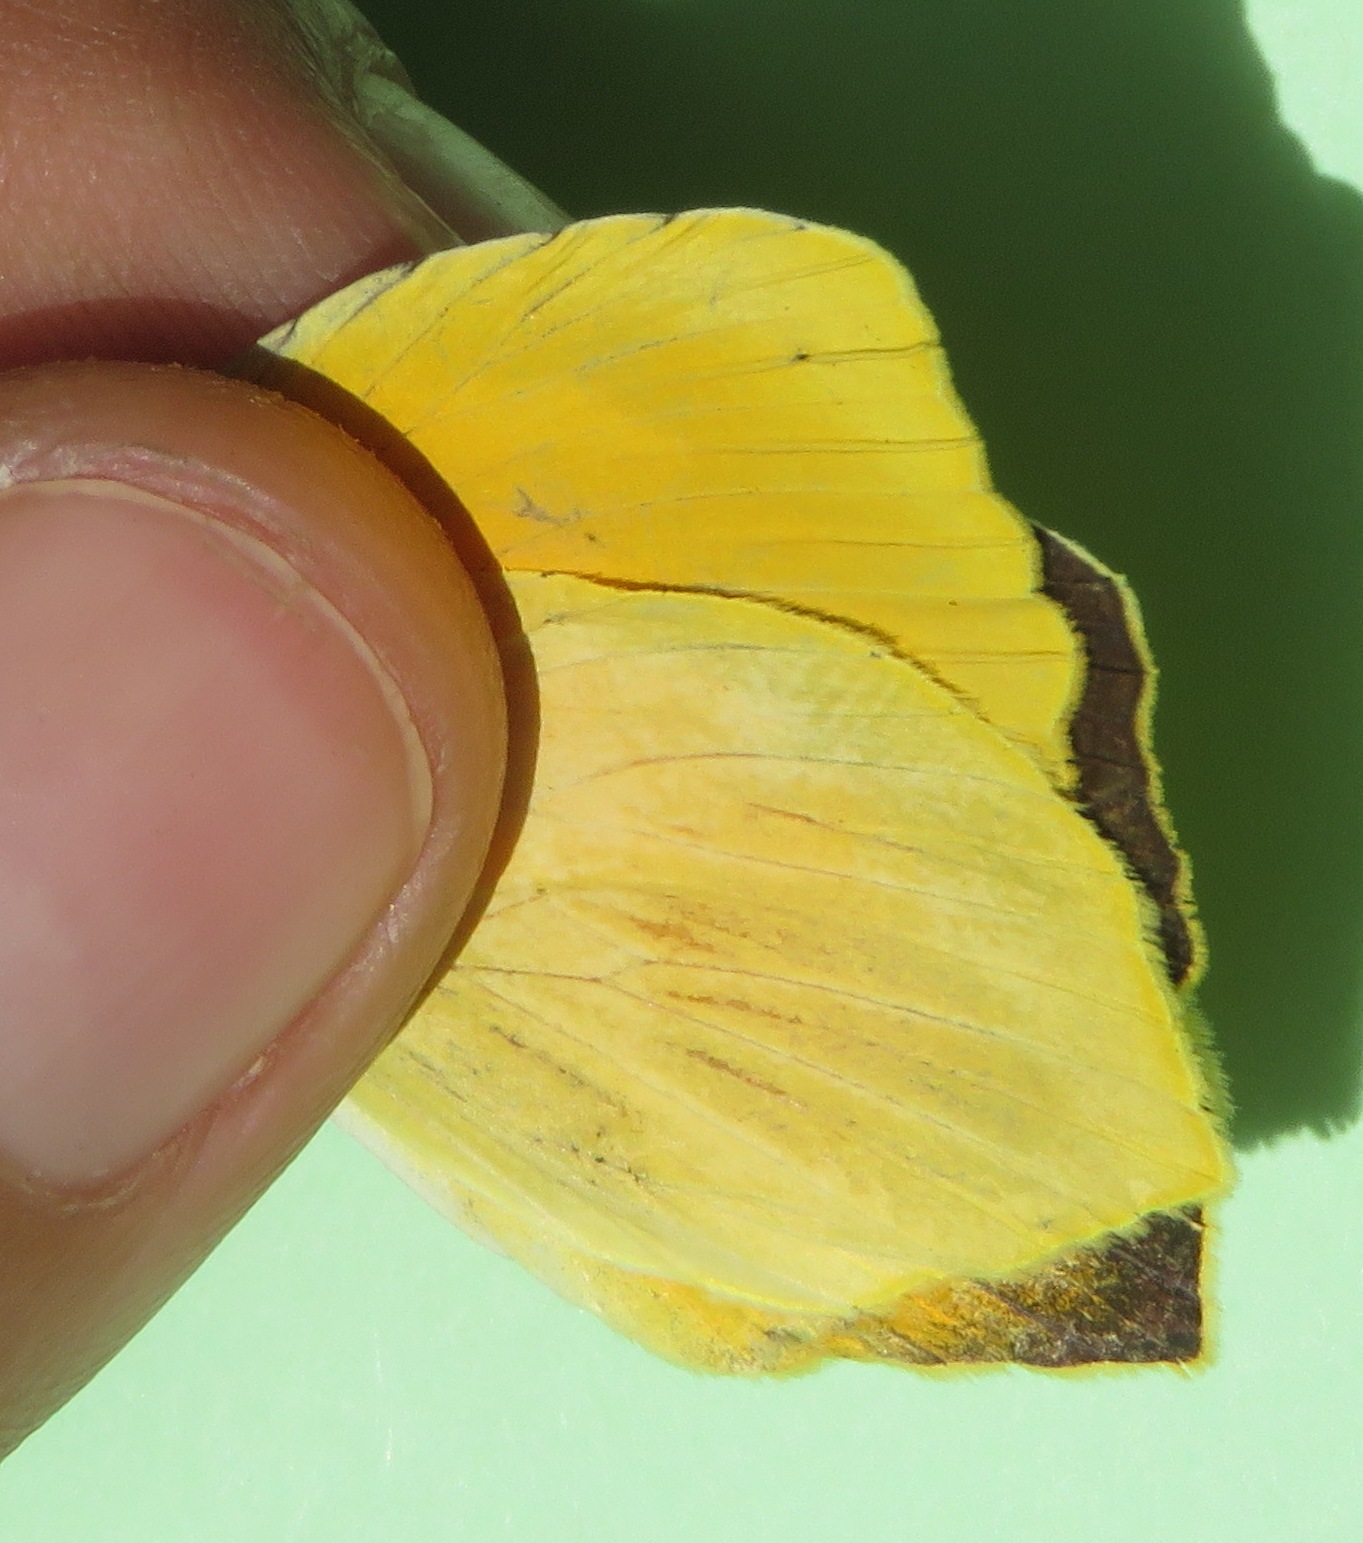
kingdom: Animalia
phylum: Arthropoda
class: Insecta
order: Lepidoptera
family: Pieridae
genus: Pyrisitia
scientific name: Pyrisitia proterpia
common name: Tailed orange
